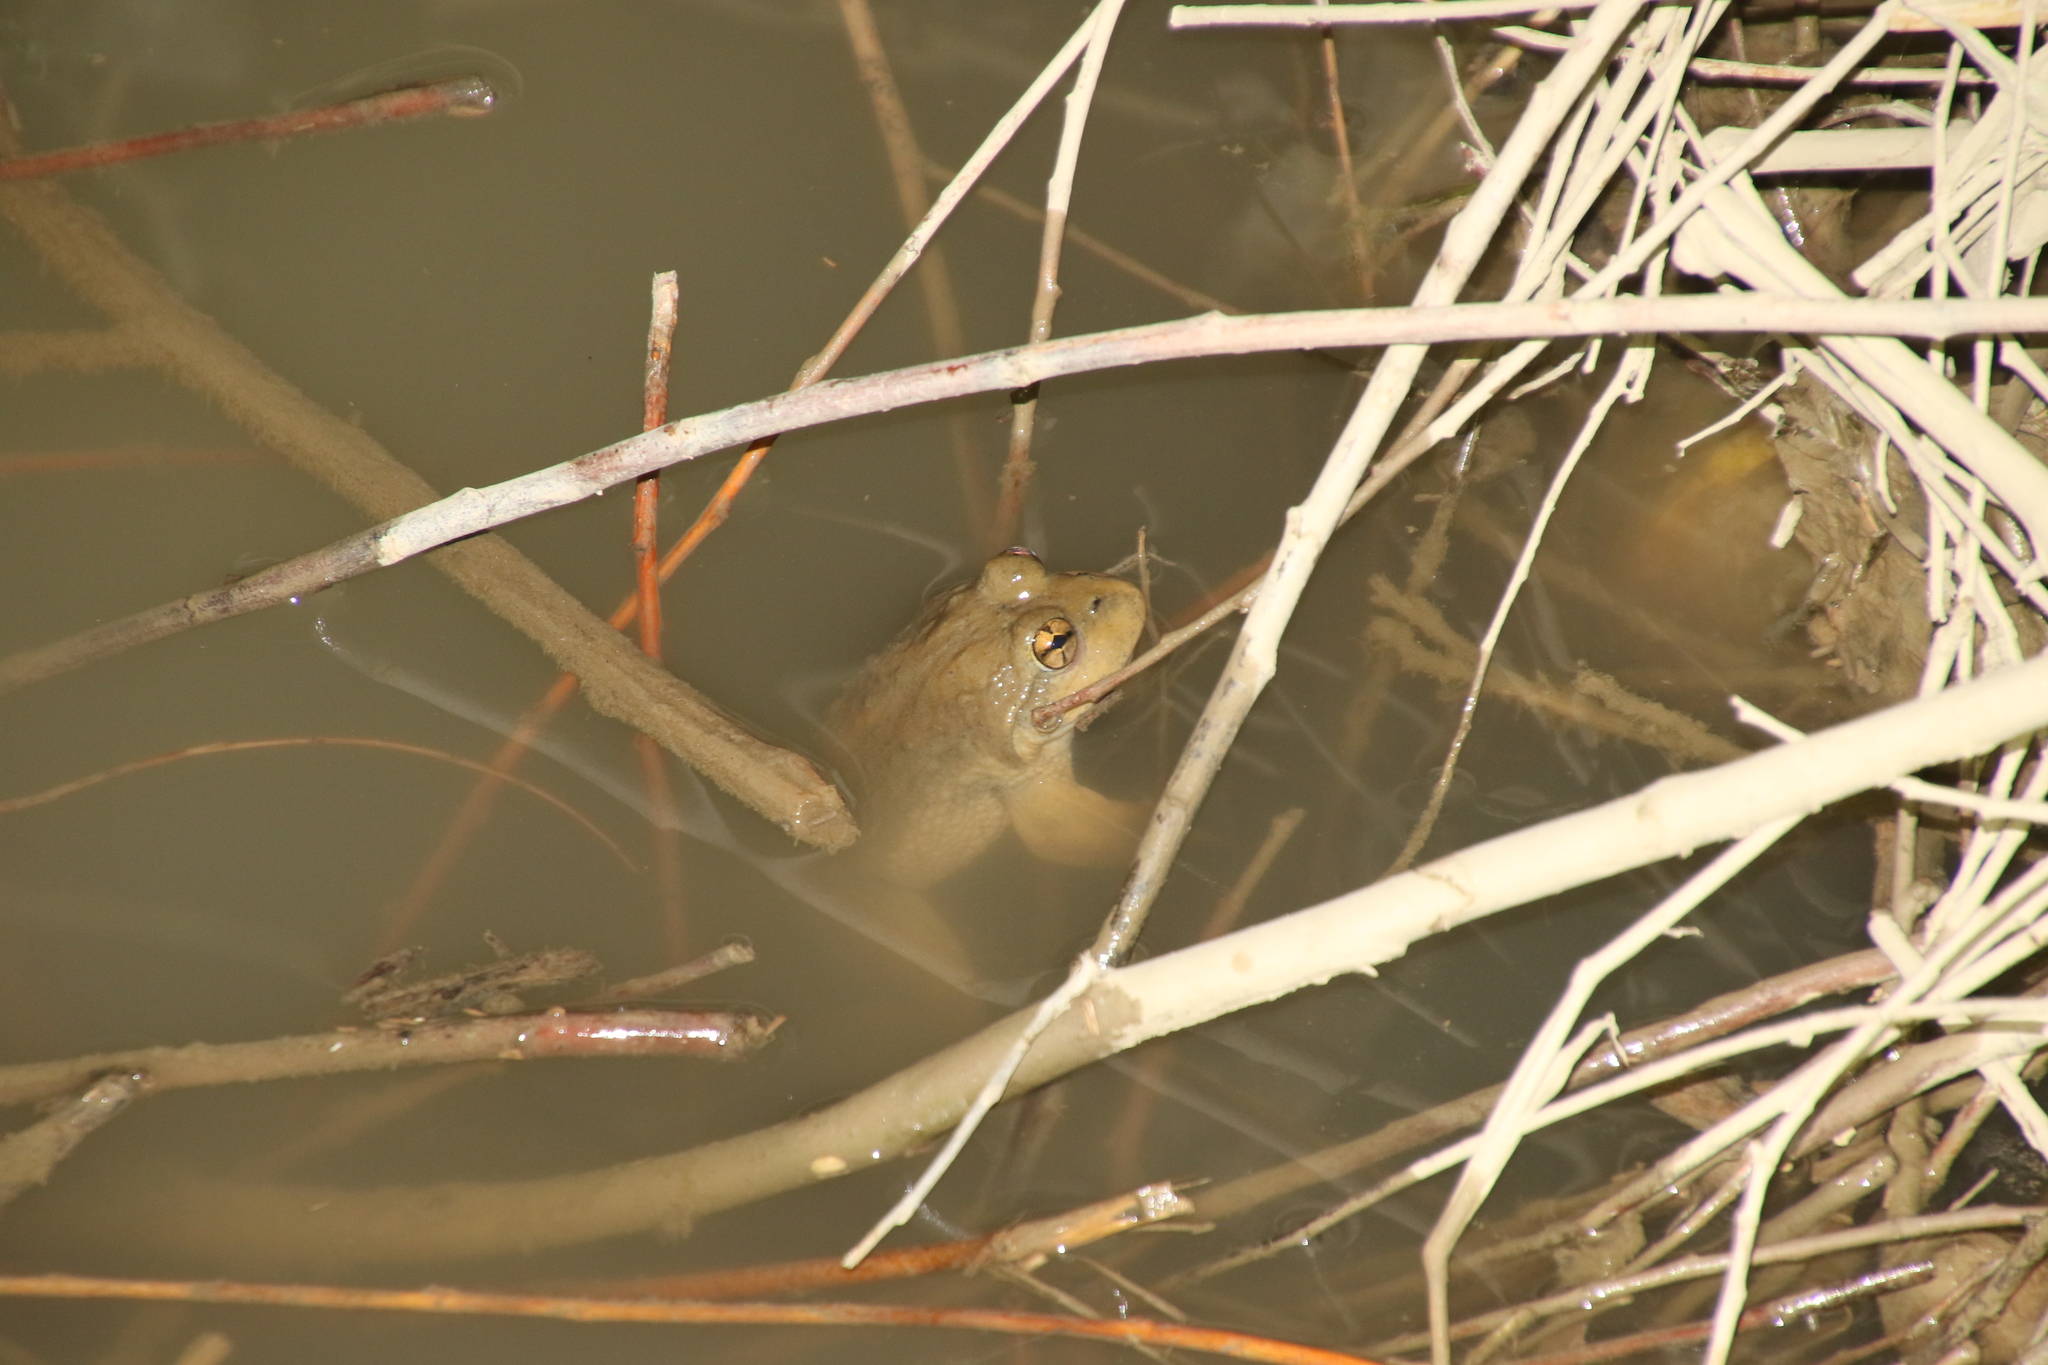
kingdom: Animalia
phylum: Chordata
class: Amphibia
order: Anura
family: Dicroglossidae
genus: Chrysopaa
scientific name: Chrysopaa sternosignata
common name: Murray's frog
